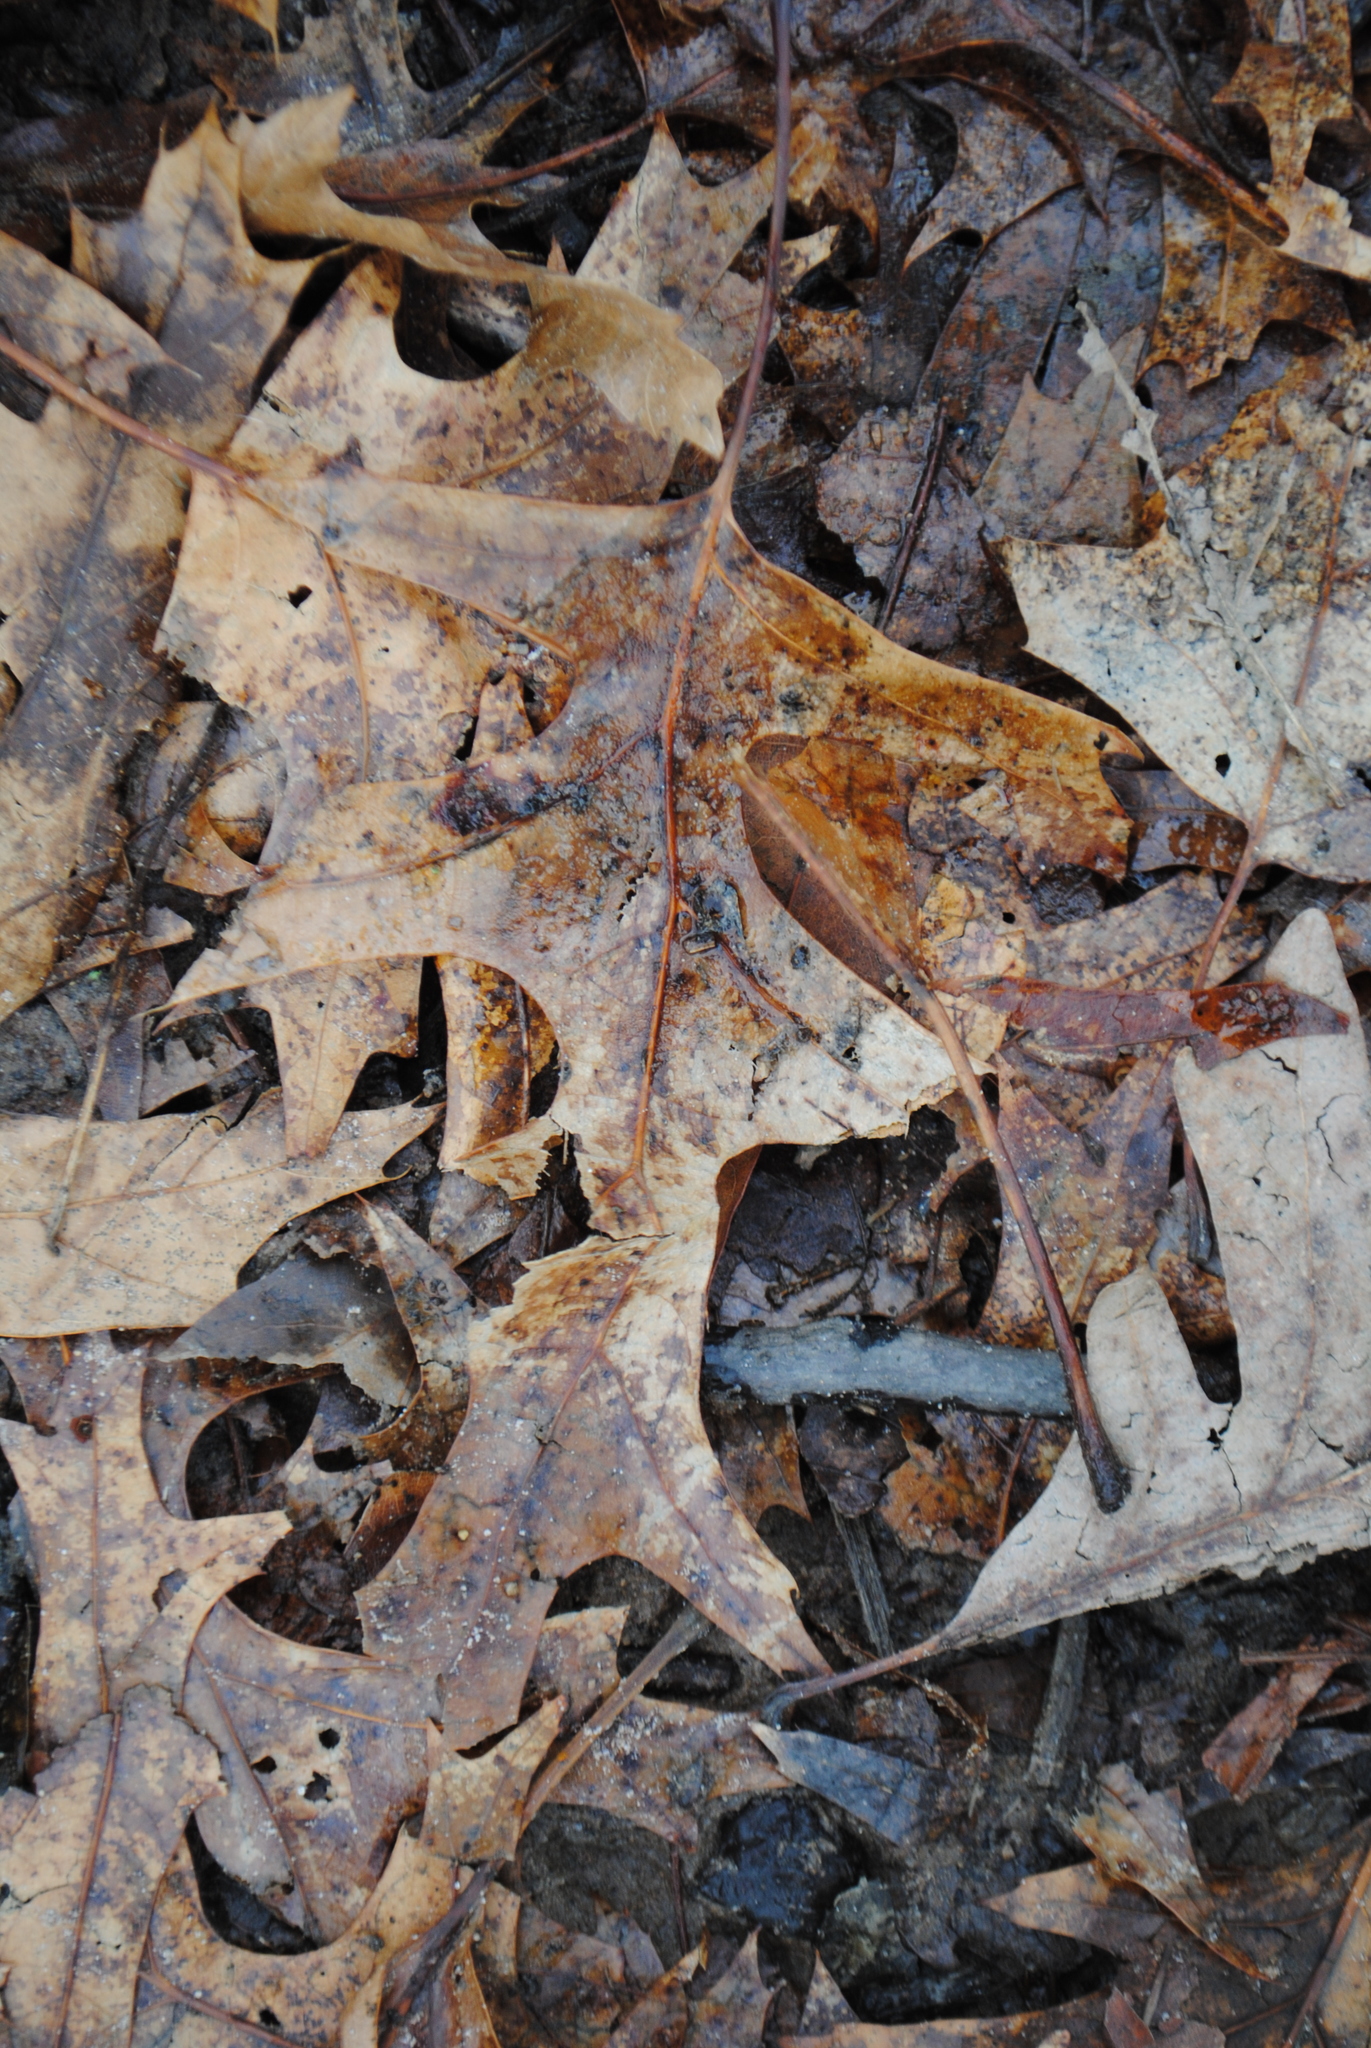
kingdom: Plantae
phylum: Tracheophyta
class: Magnoliopsida
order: Fagales
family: Fagaceae
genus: Quercus
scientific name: Quercus palustris
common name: Pin oak
